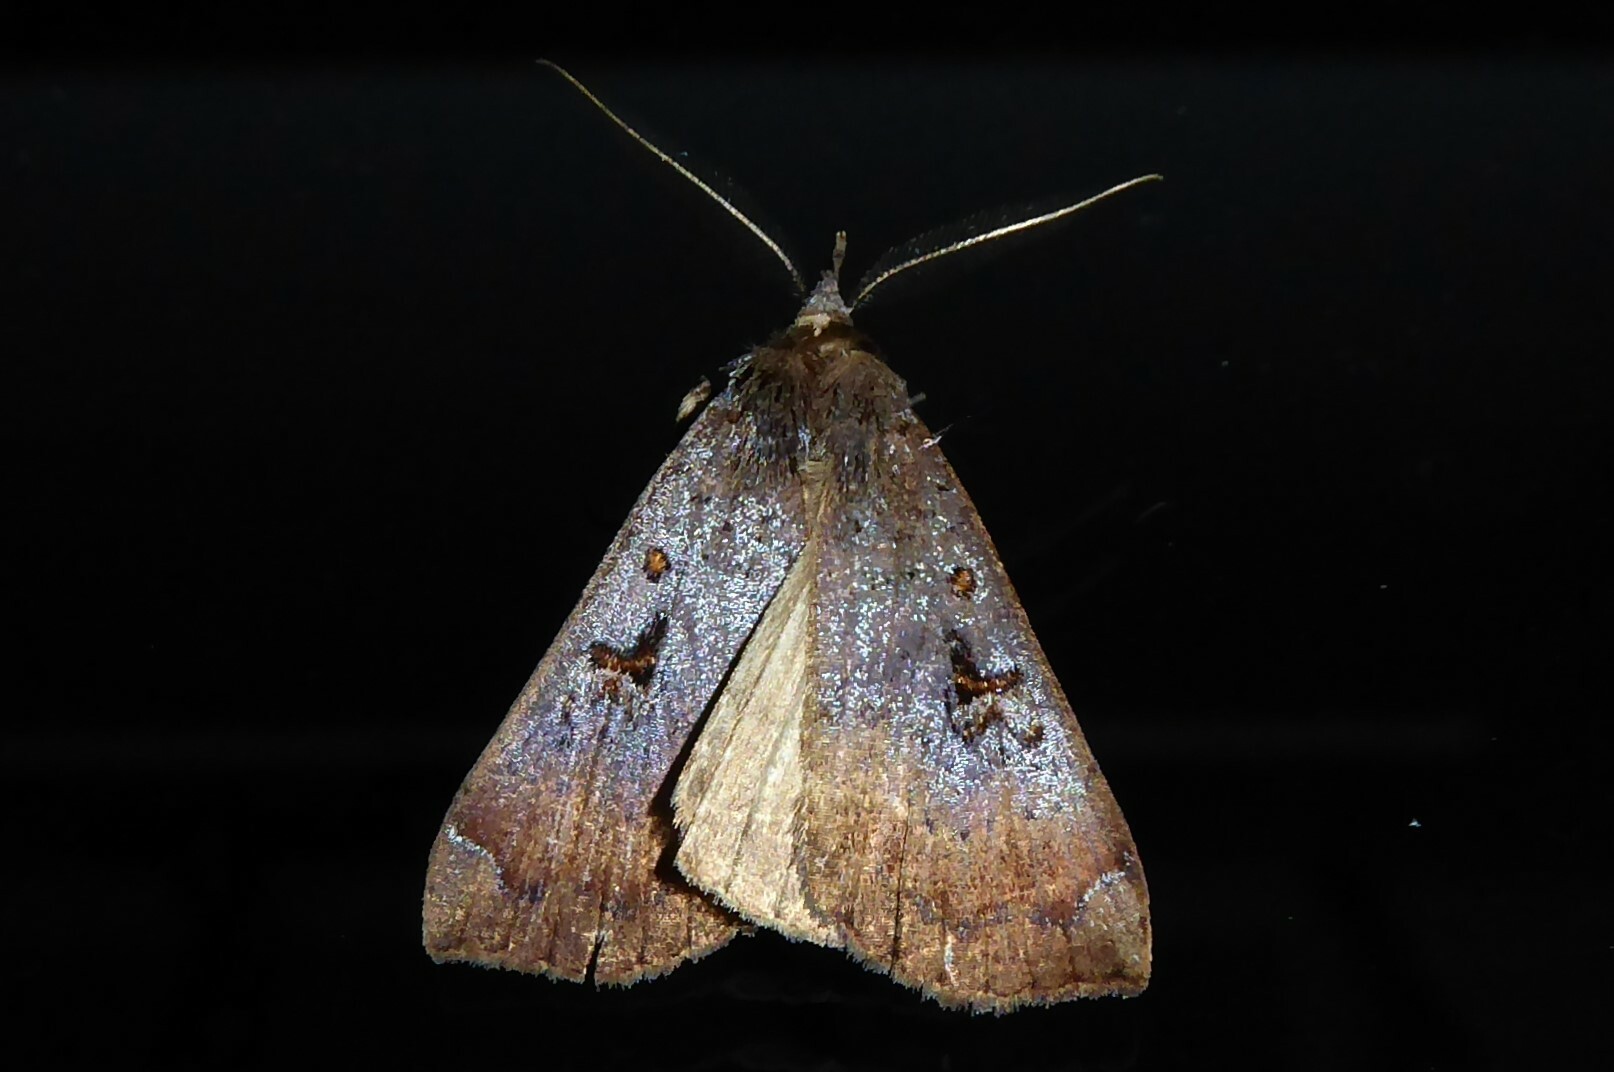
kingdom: Animalia
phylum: Arthropoda
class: Insecta
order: Lepidoptera
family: Erebidae
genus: Rhapsa
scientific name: Rhapsa scotosialis
